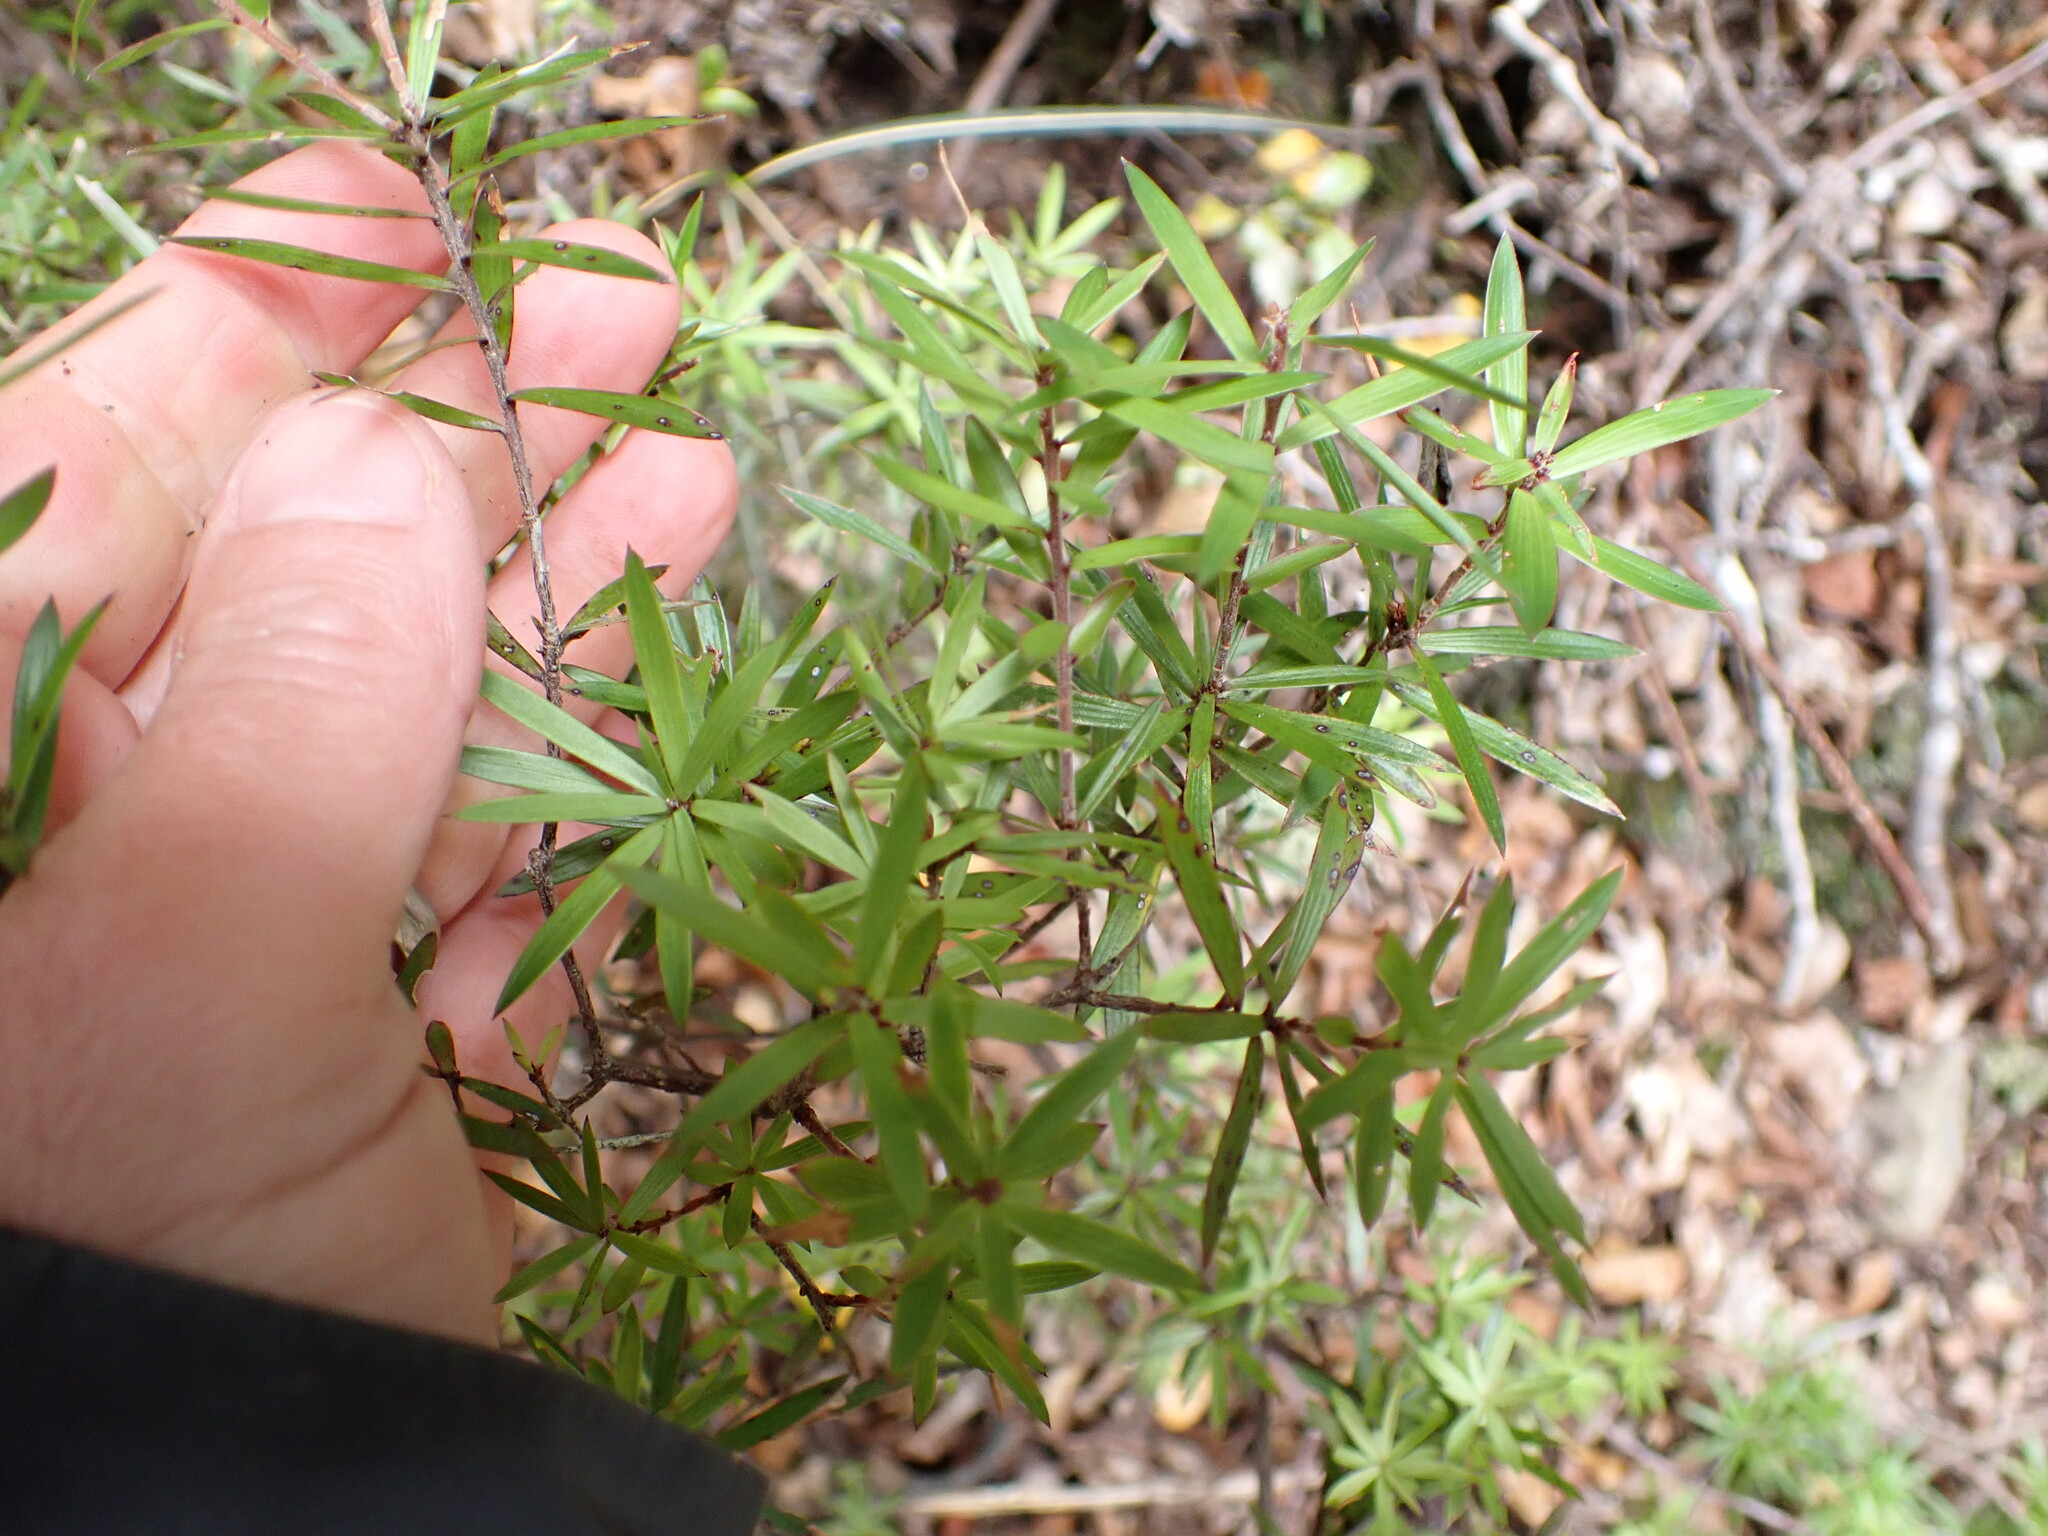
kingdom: Plantae
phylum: Tracheophyta
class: Magnoliopsida
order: Ericales
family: Ericaceae
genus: Leucopogon
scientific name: Leucopogon fasciculatus
